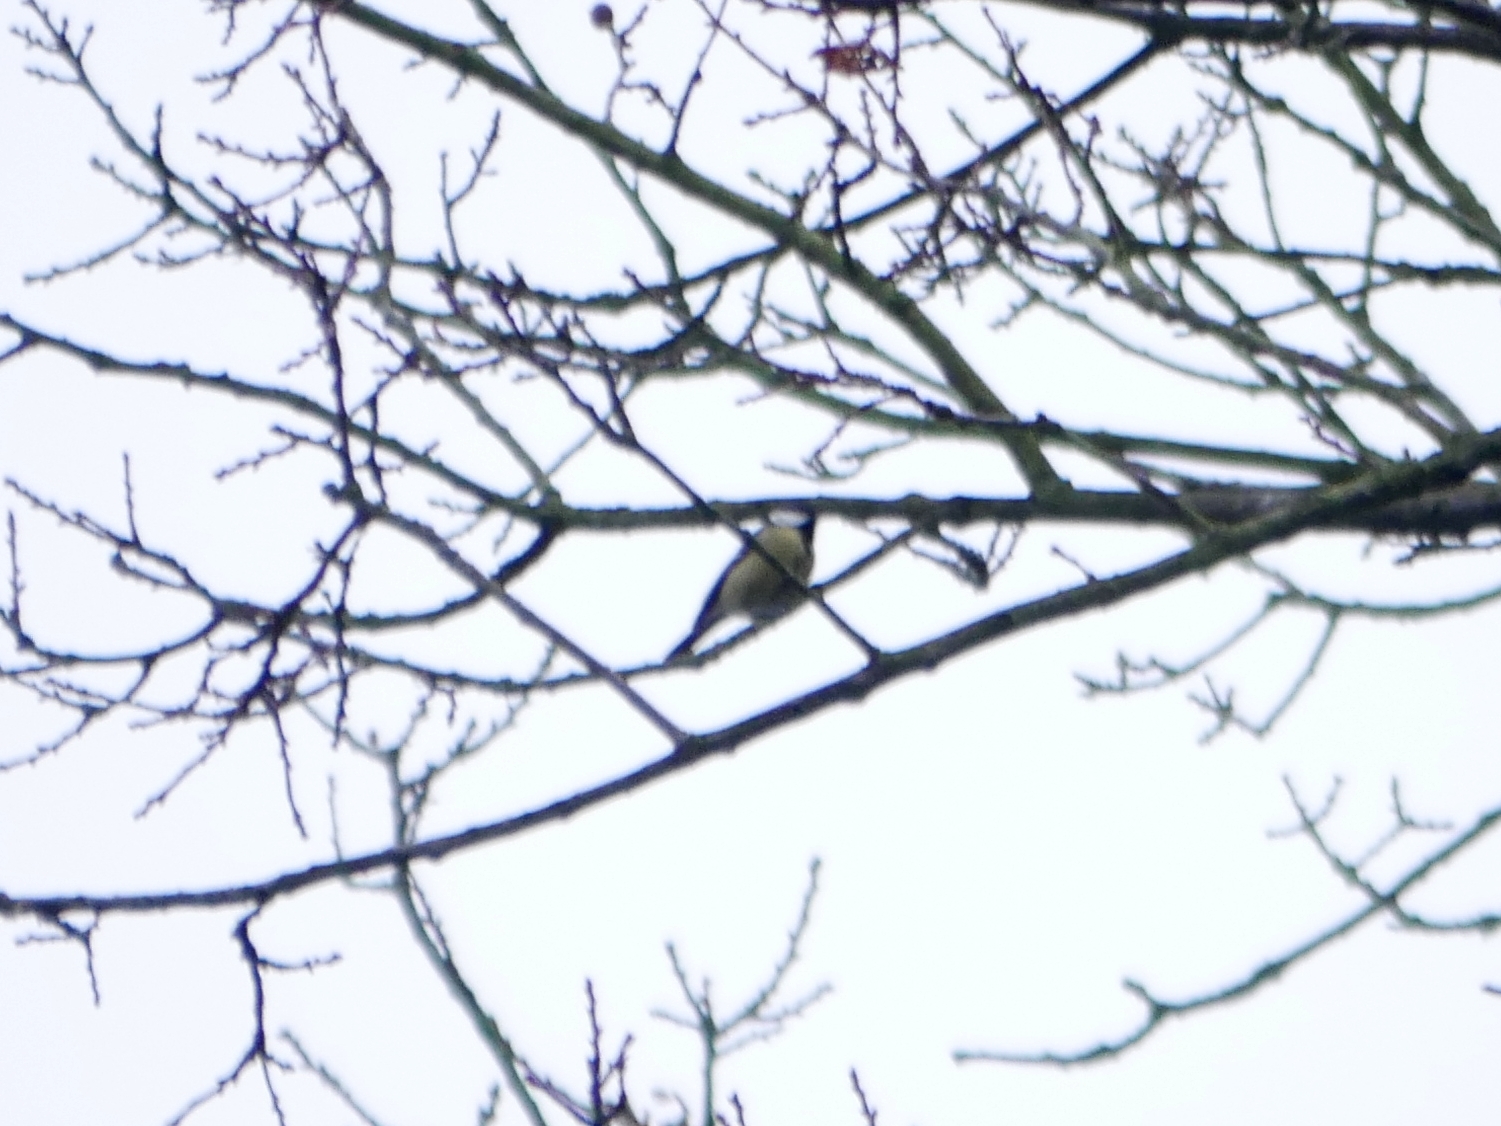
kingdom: Animalia
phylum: Chordata
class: Aves
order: Passeriformes
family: Paridae
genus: Parus
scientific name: Parus major
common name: Great tit
